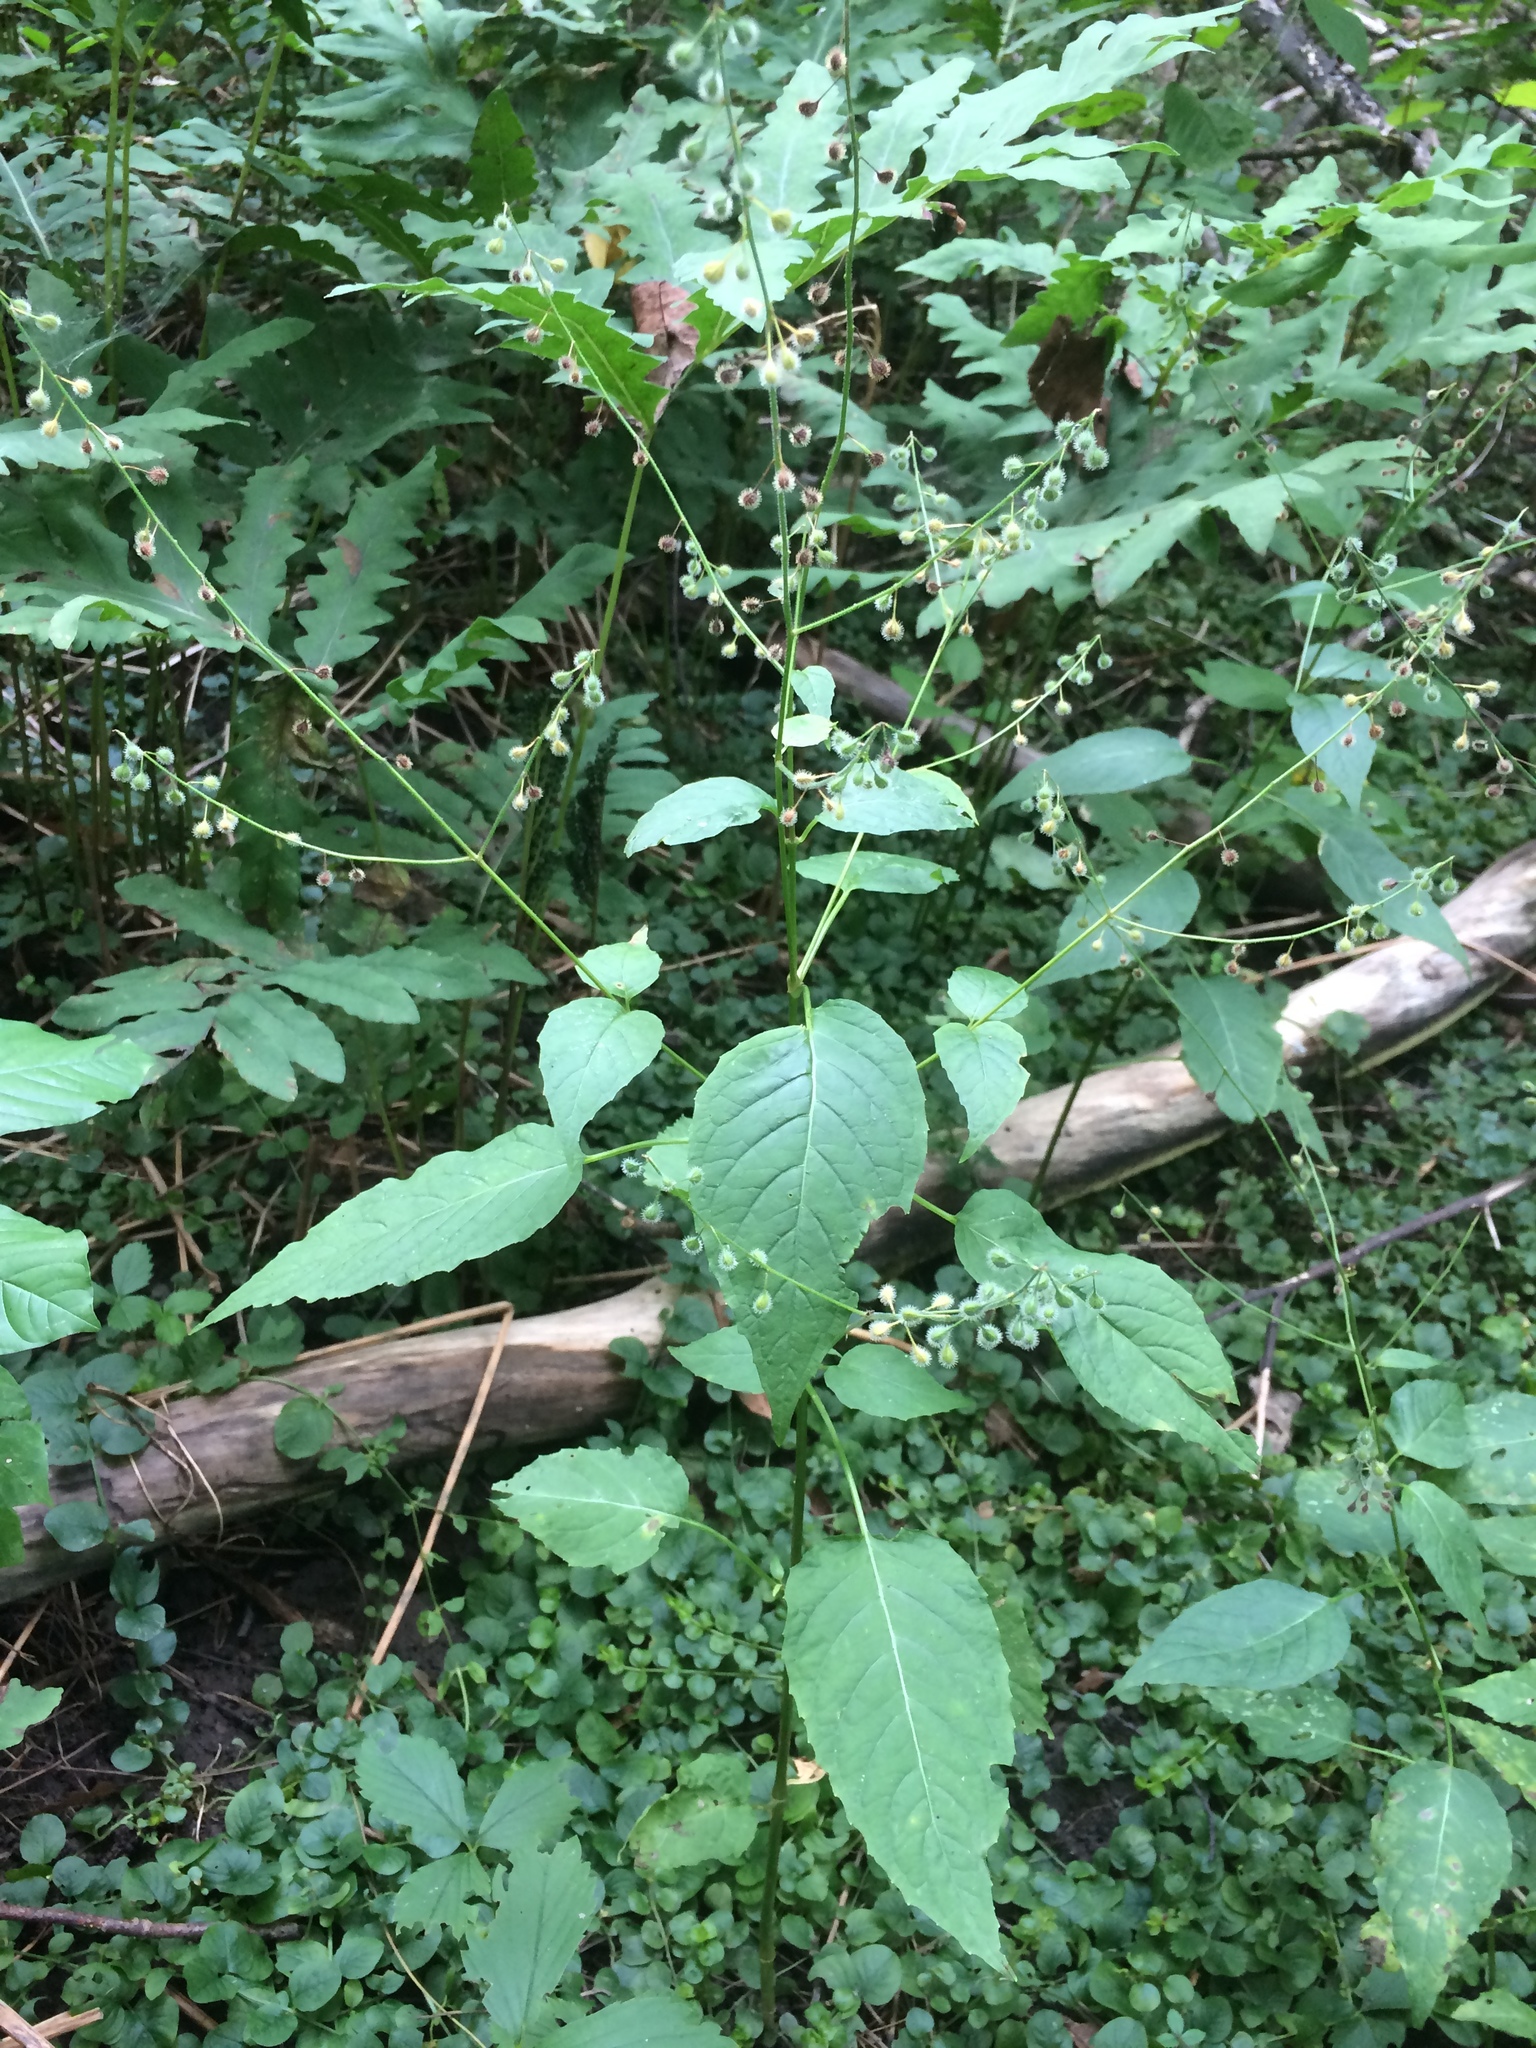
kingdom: Plantae
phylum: Tracheophyta
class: Magnoliopsida
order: Myrtales
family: Onagraceae
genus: Circaea
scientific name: Circaea canadensis
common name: Broad-leaved enchanter's nightshade
